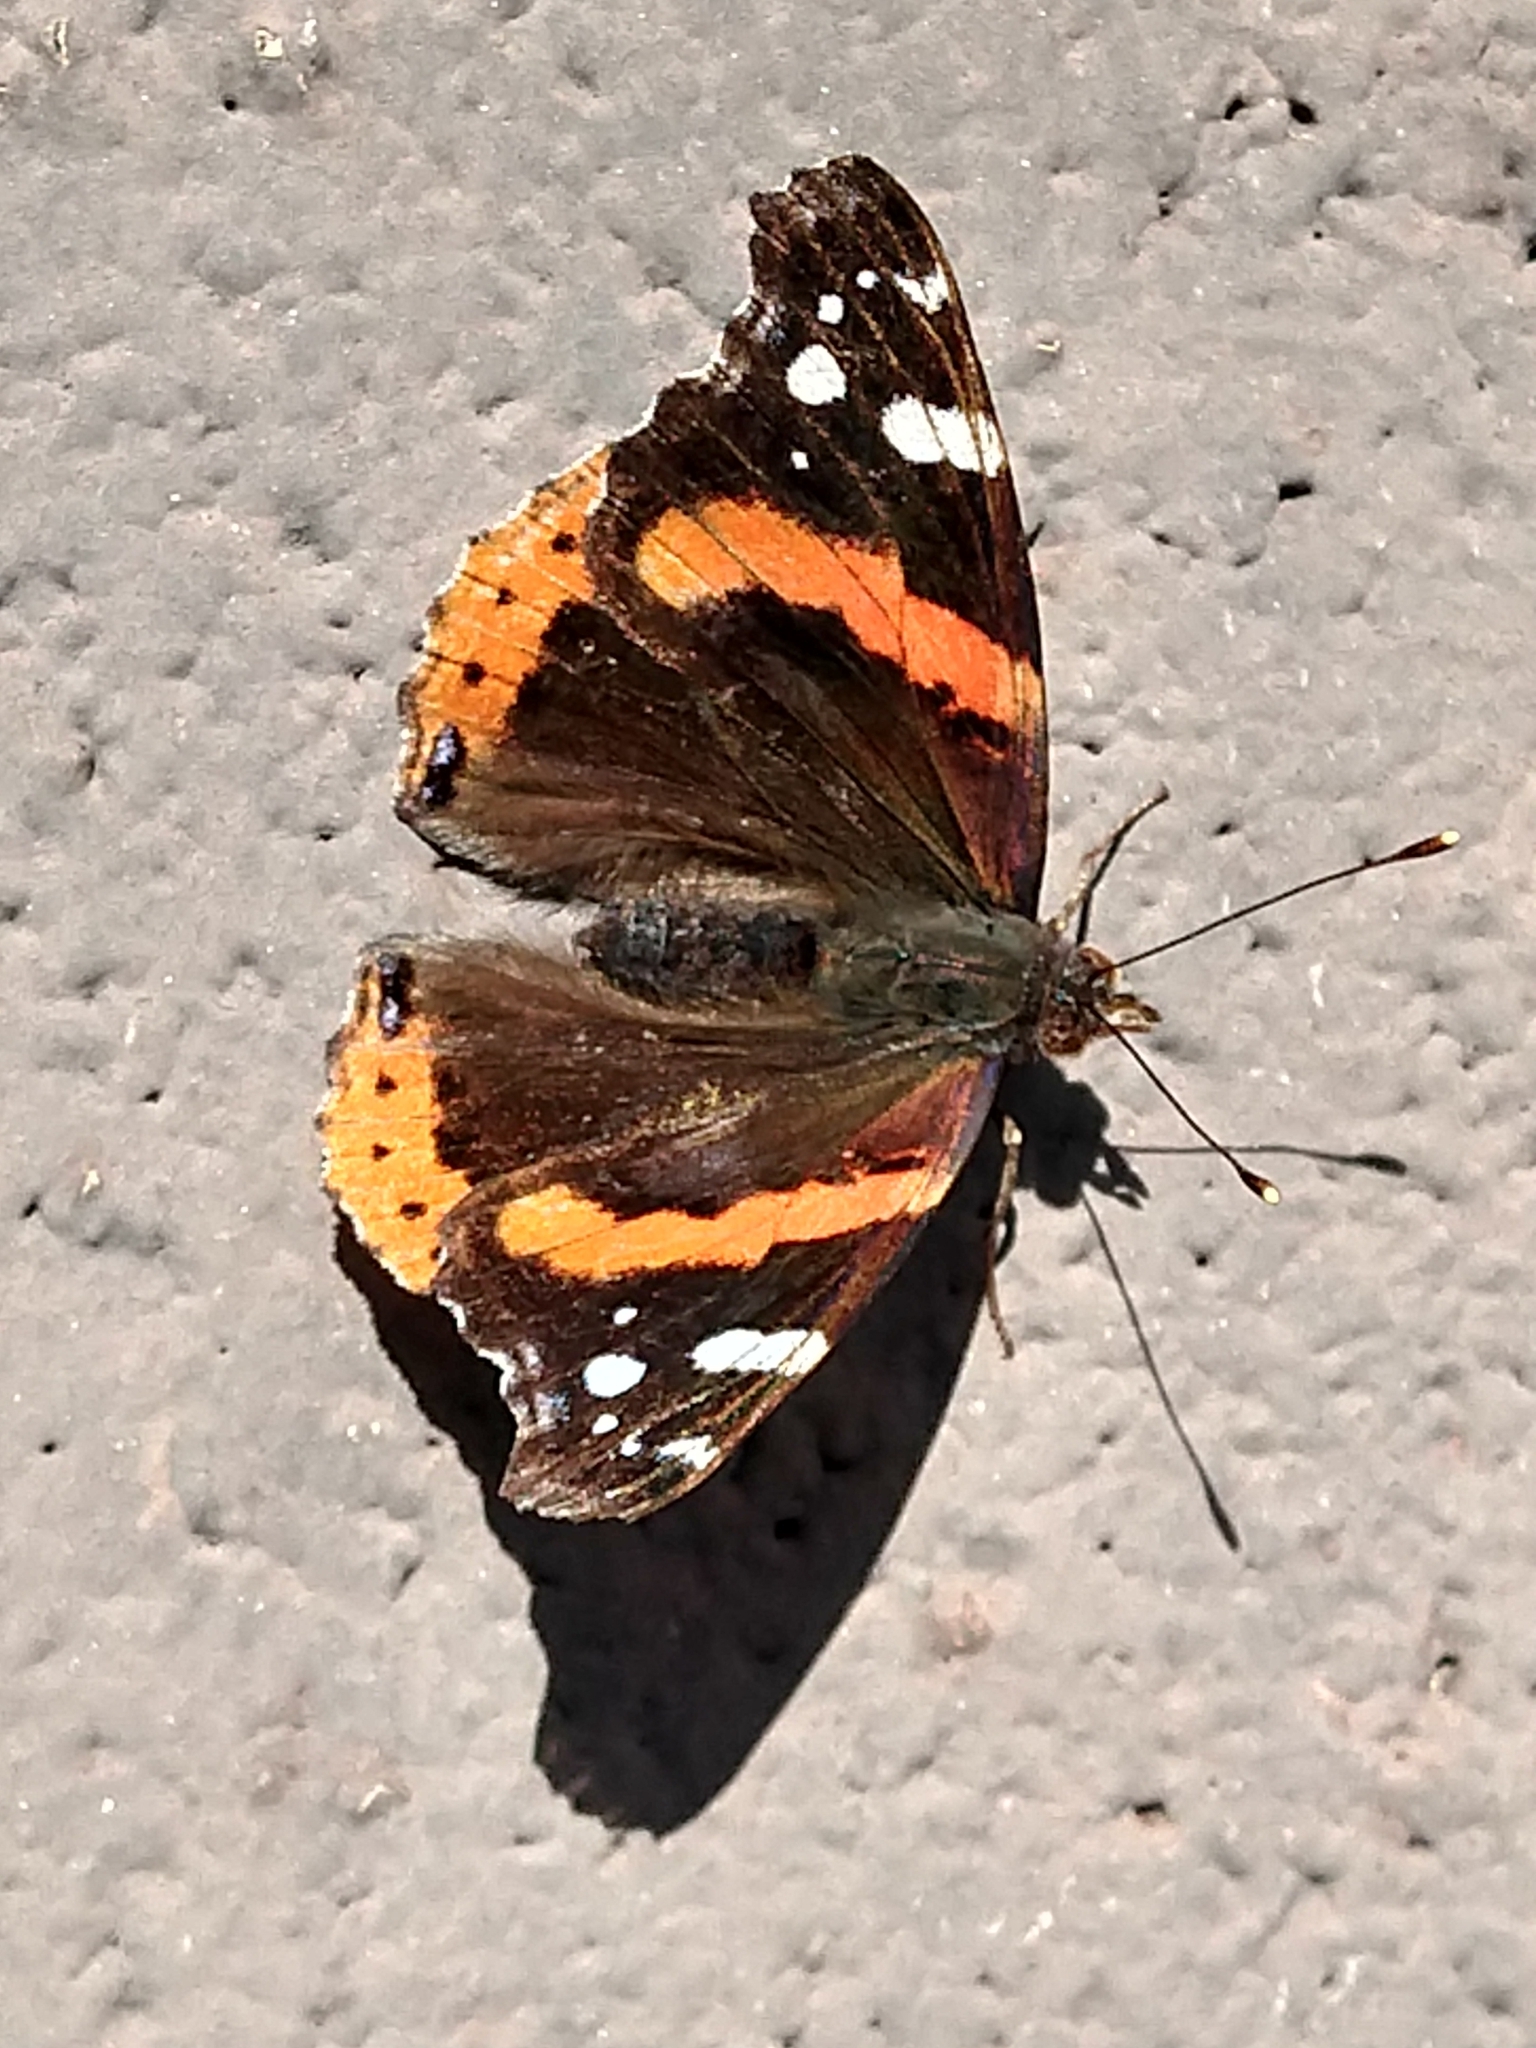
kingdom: Animalia
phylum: Arthropoda
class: Insecta
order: Lepidoptera
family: Nymphalidae
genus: Vanessa
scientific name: Vanessa atalanta
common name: Red admiral
